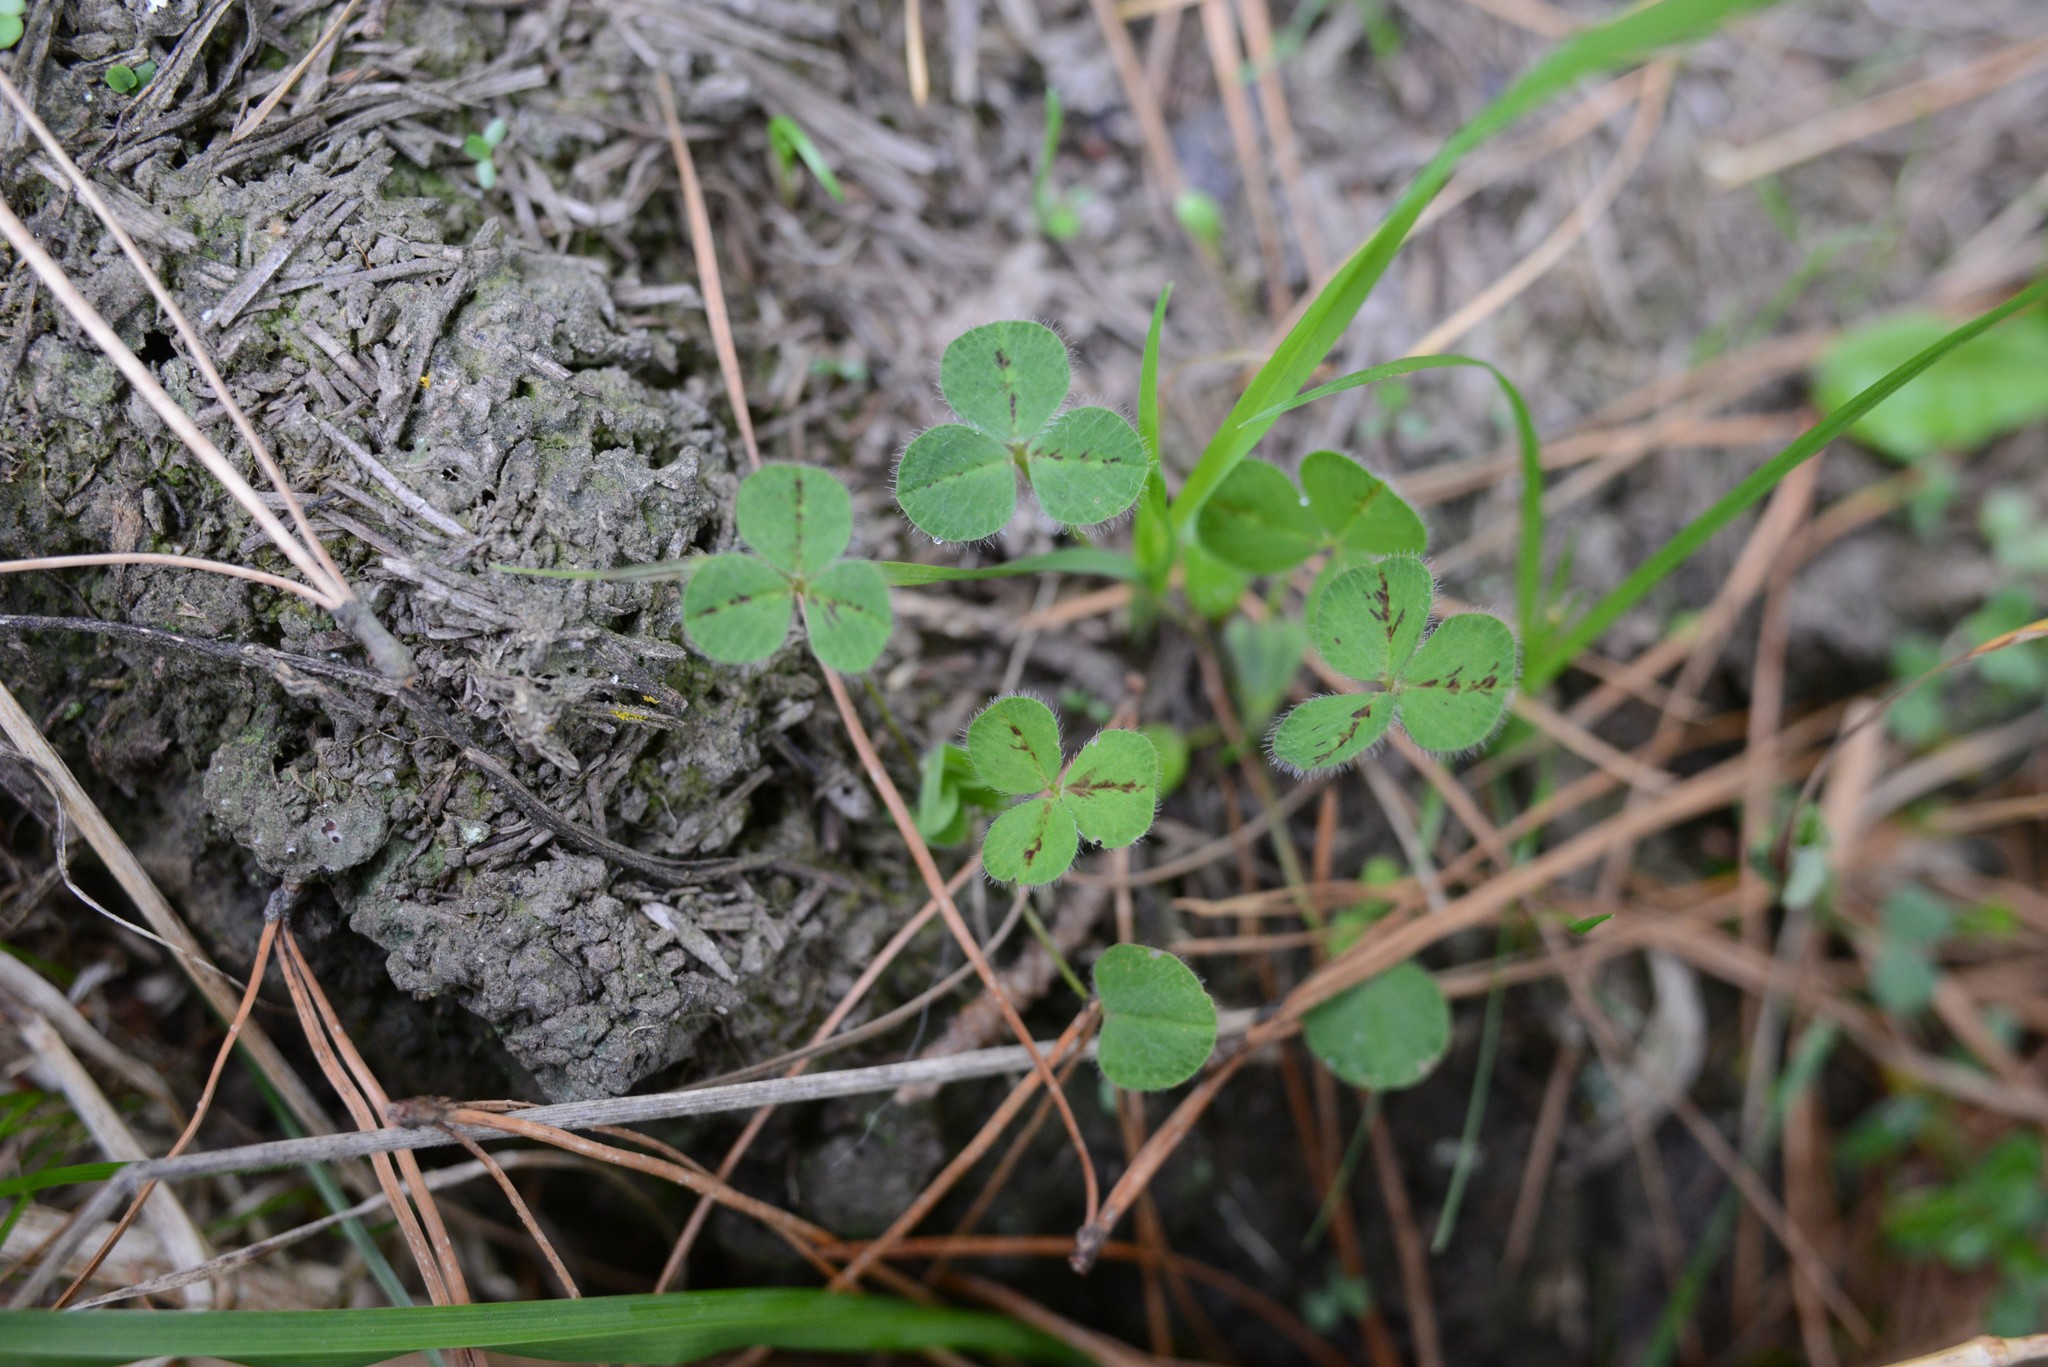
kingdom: Plantae
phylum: Tracheophyta
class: Magnoliopsida
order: Fabales
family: Fabaceae
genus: Trifolium
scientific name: Trifolium subterraneum
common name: Subterranean clover
